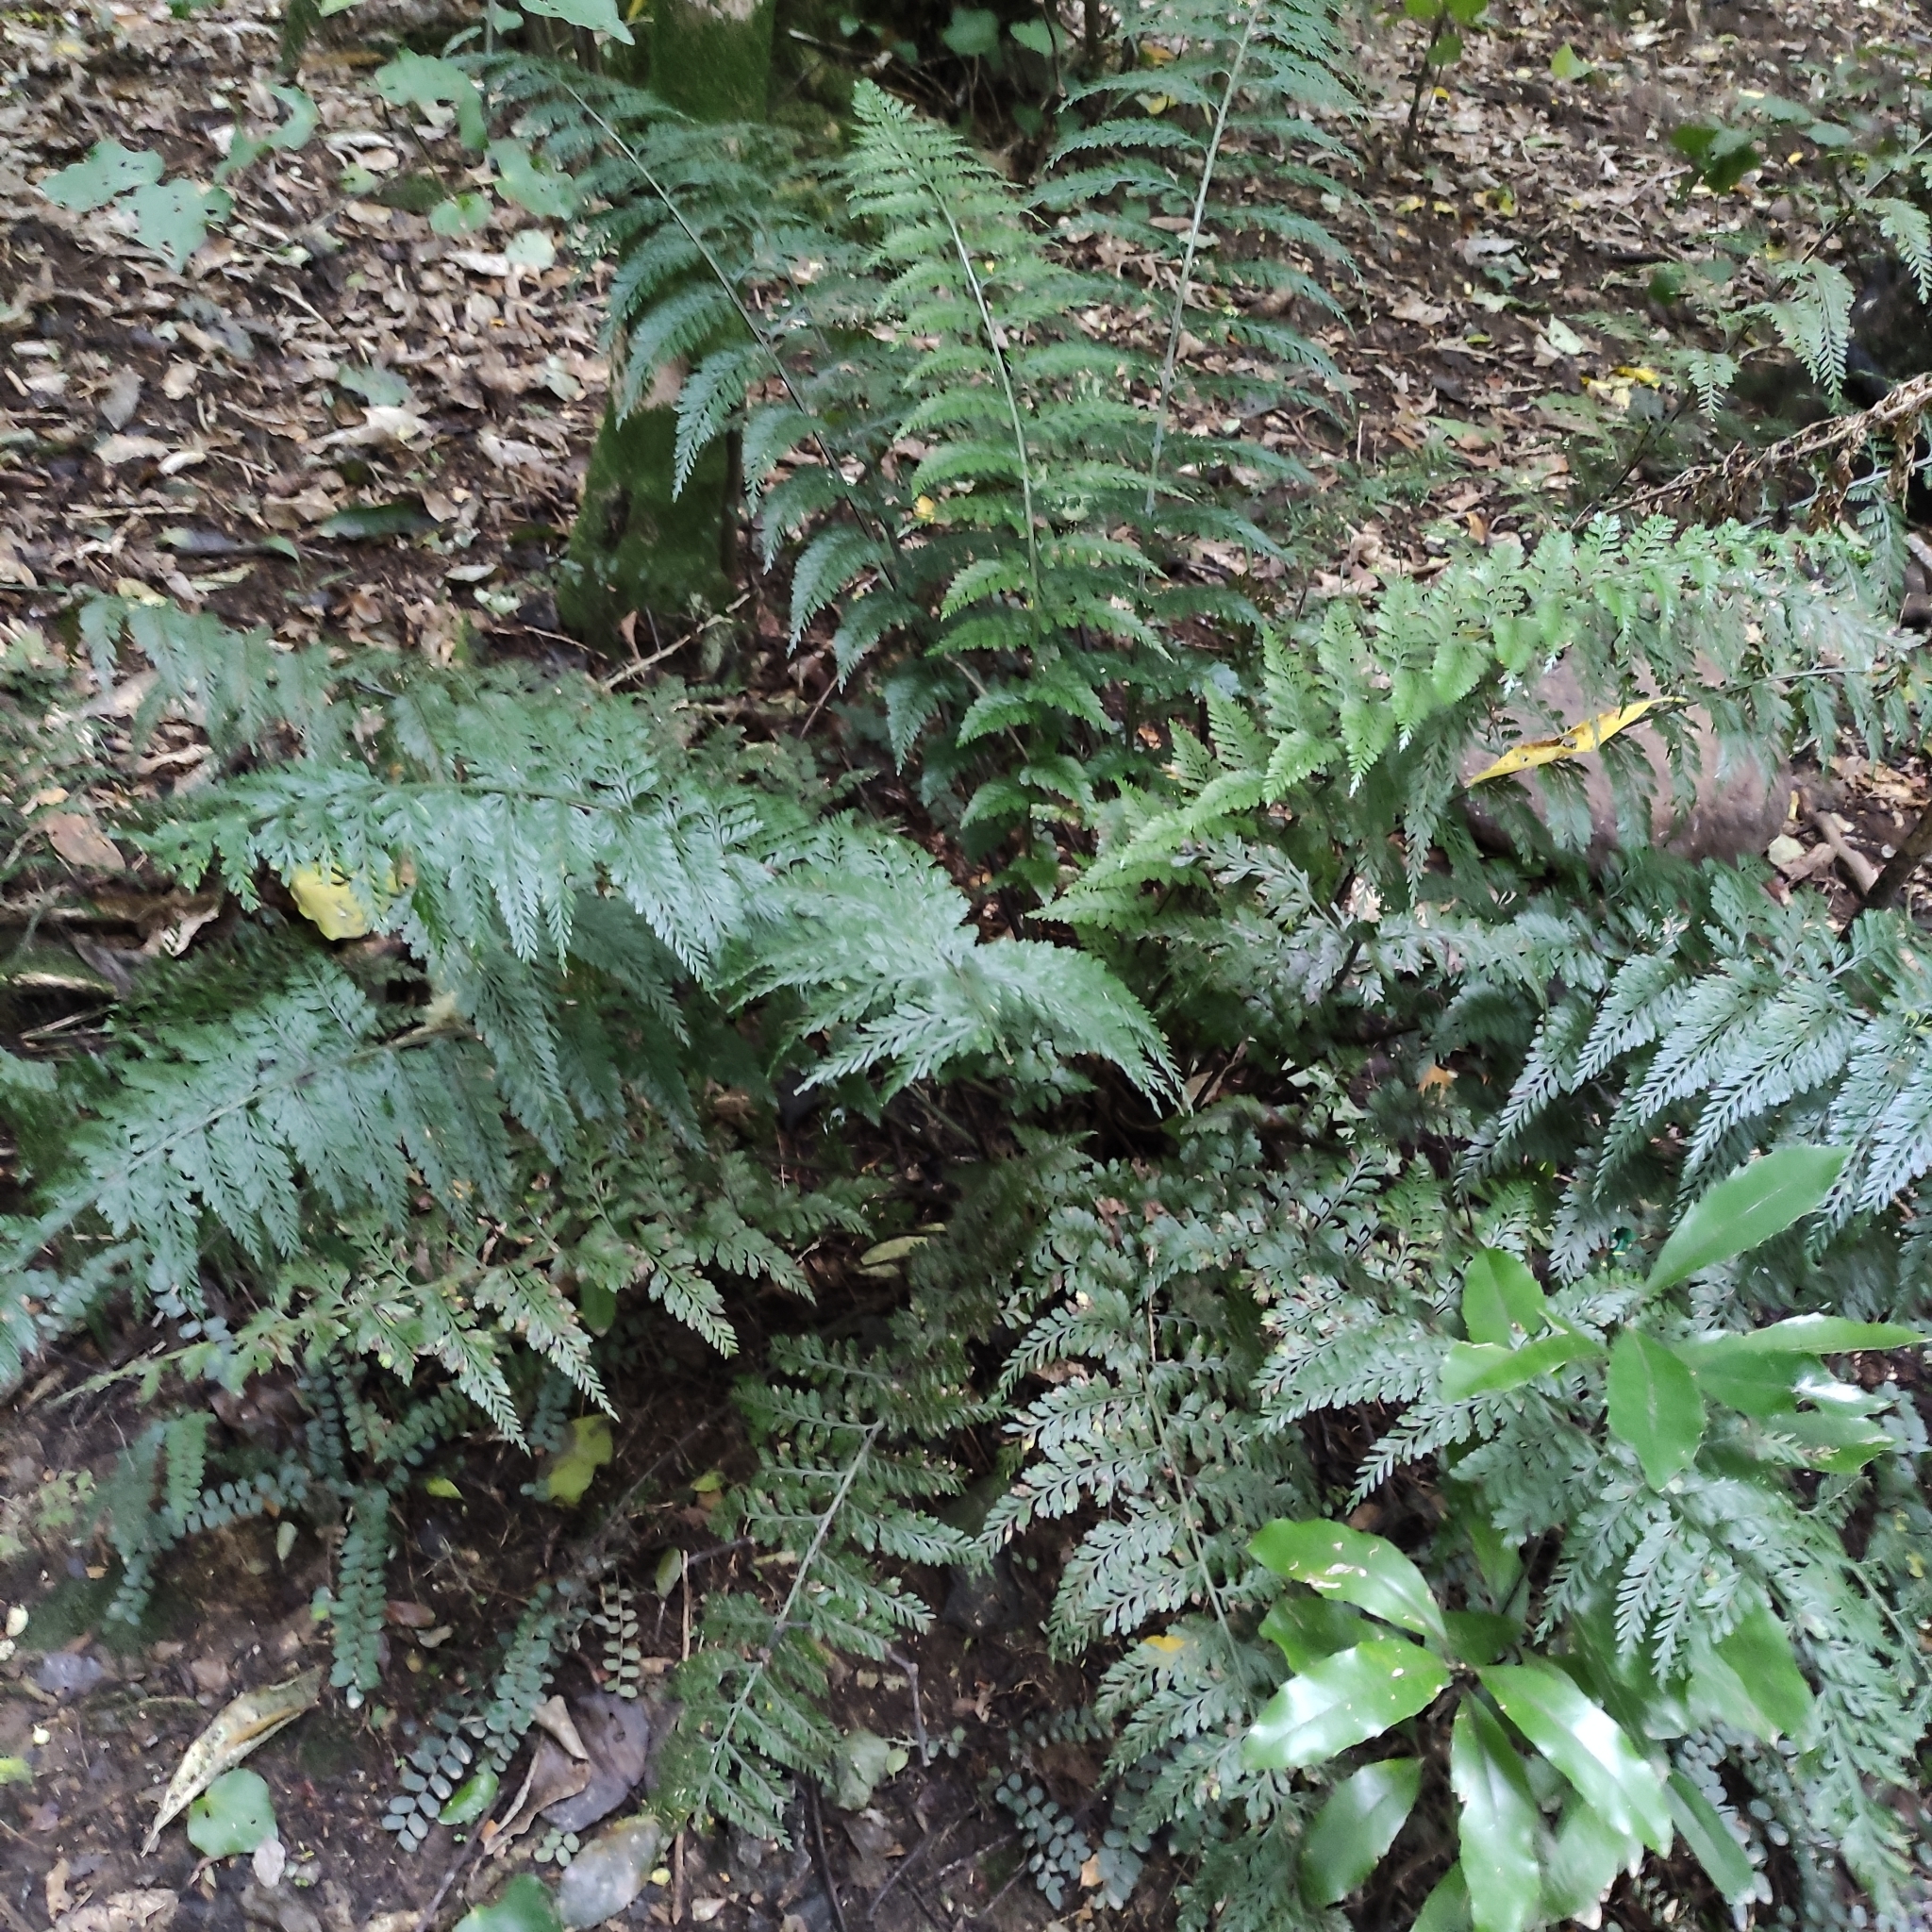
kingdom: Plantae
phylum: Tracheophyta
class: Polypodiopsida
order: Polypodiales
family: Aspleniaceae
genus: Asplenium
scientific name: Asplenium
